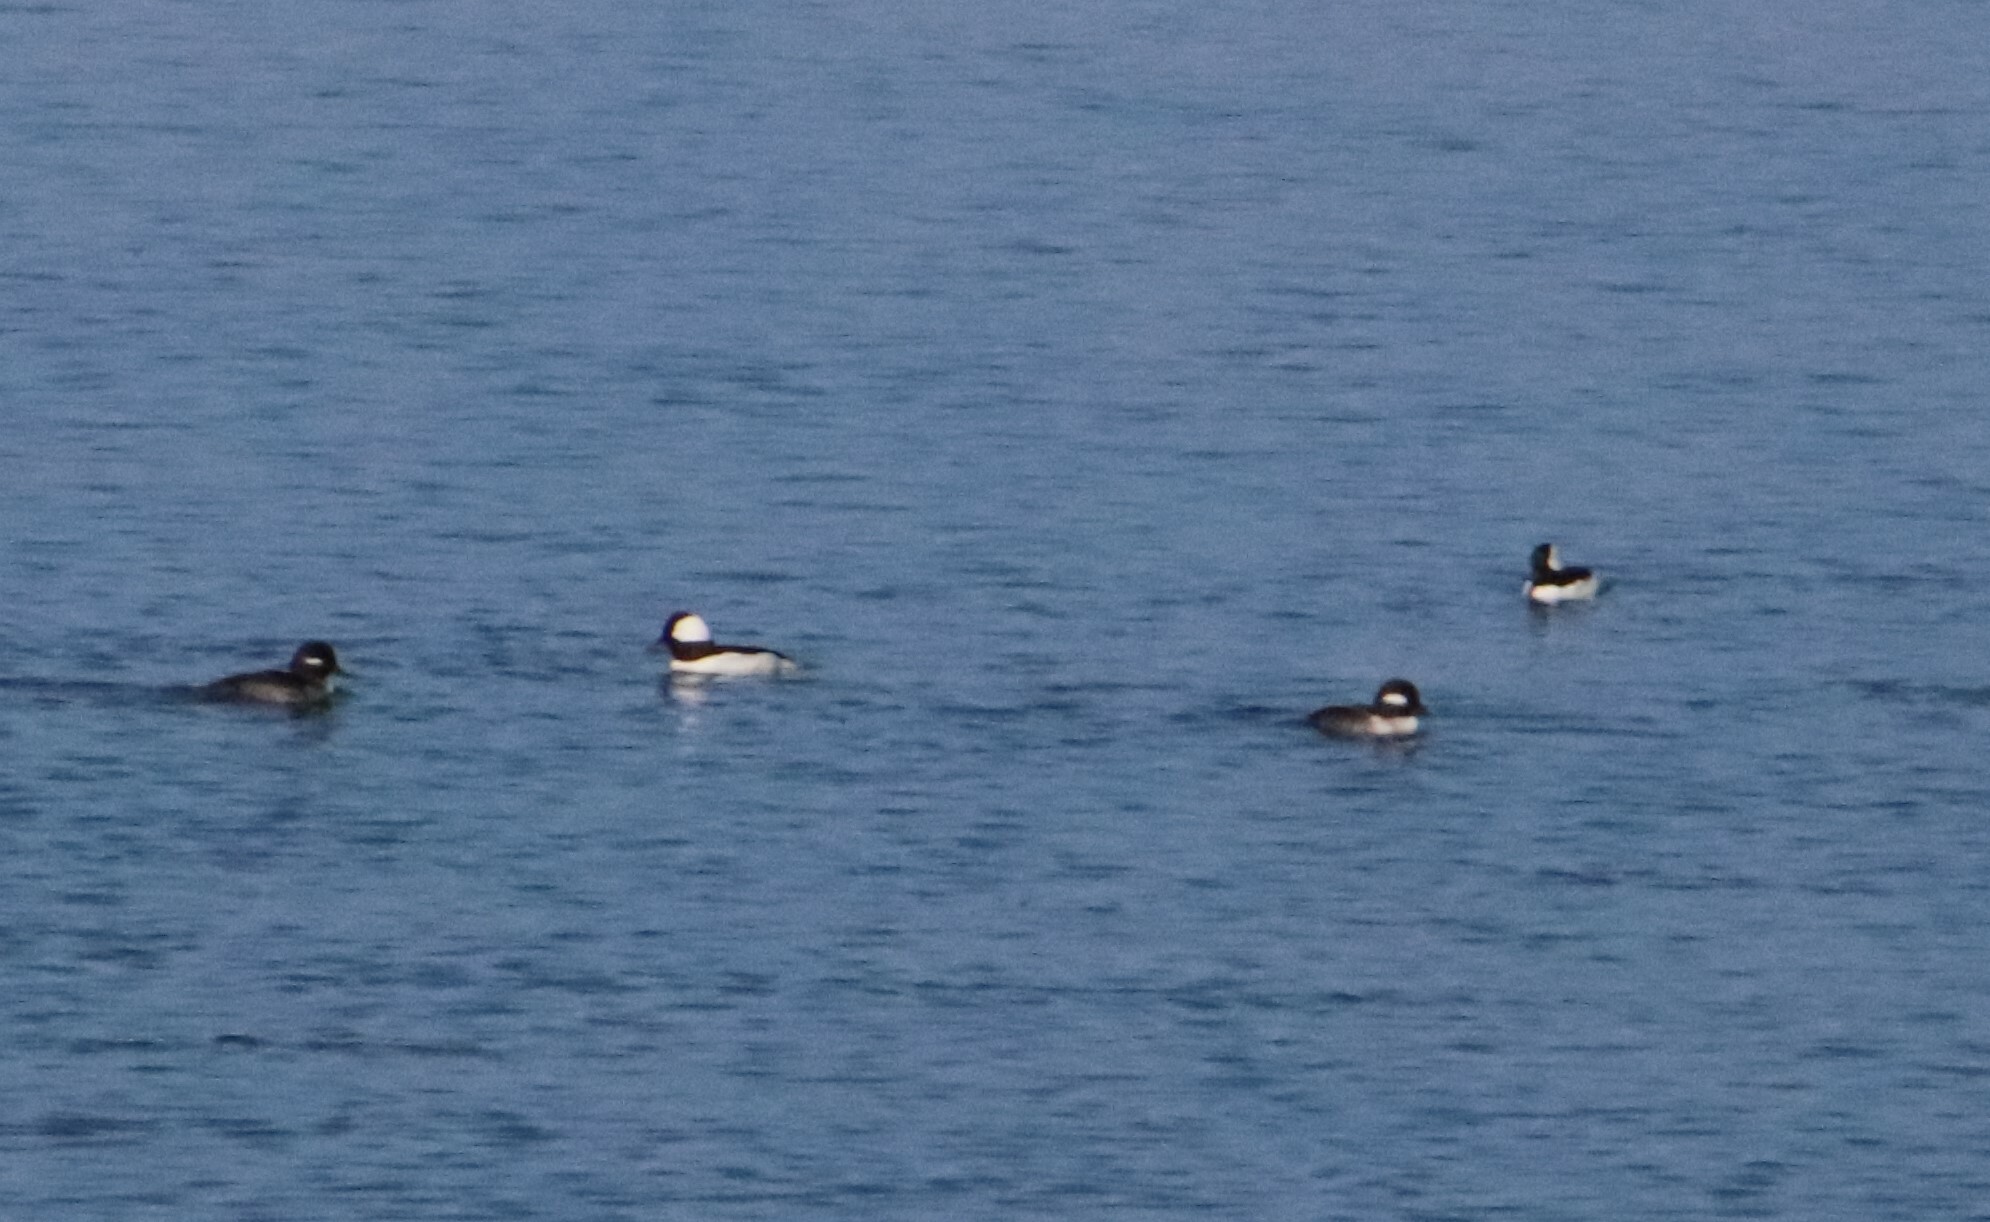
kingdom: Animalia
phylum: Chordata
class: Aves
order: Anseriformes
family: Anatidae
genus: Bucephala
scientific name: Bucephala albeola
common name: Bufflehead
